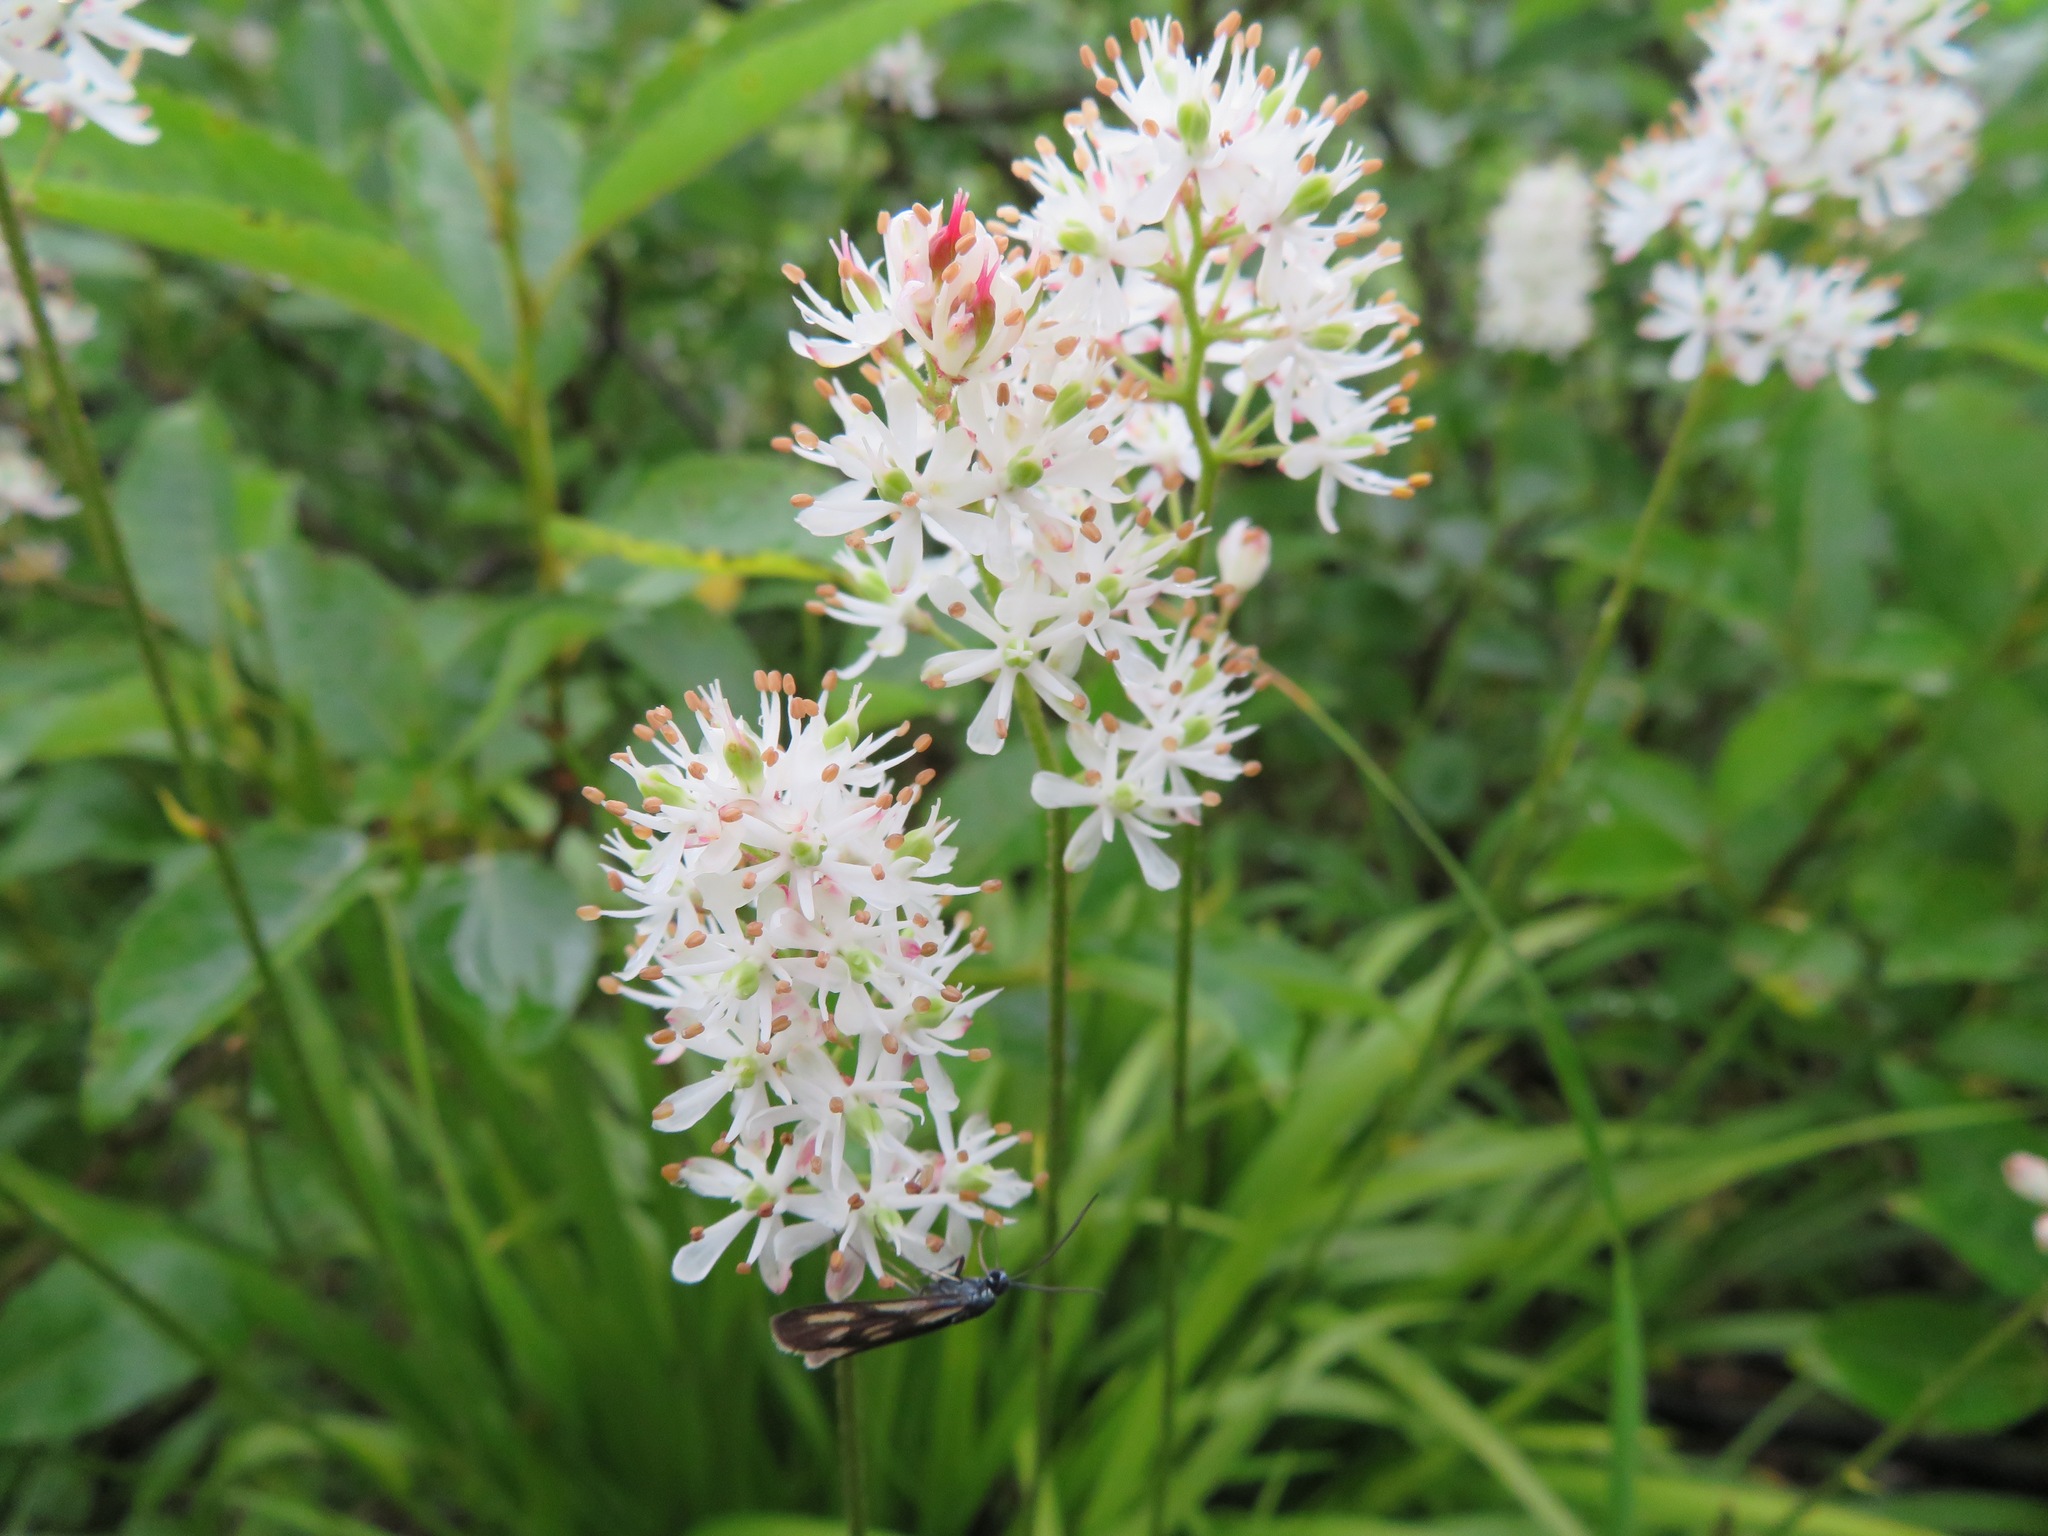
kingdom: Plantae
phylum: Tracheophyta
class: Liliopsida
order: Alismatales
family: Tofieldiaceae
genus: Triantha
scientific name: Triantha japonica
